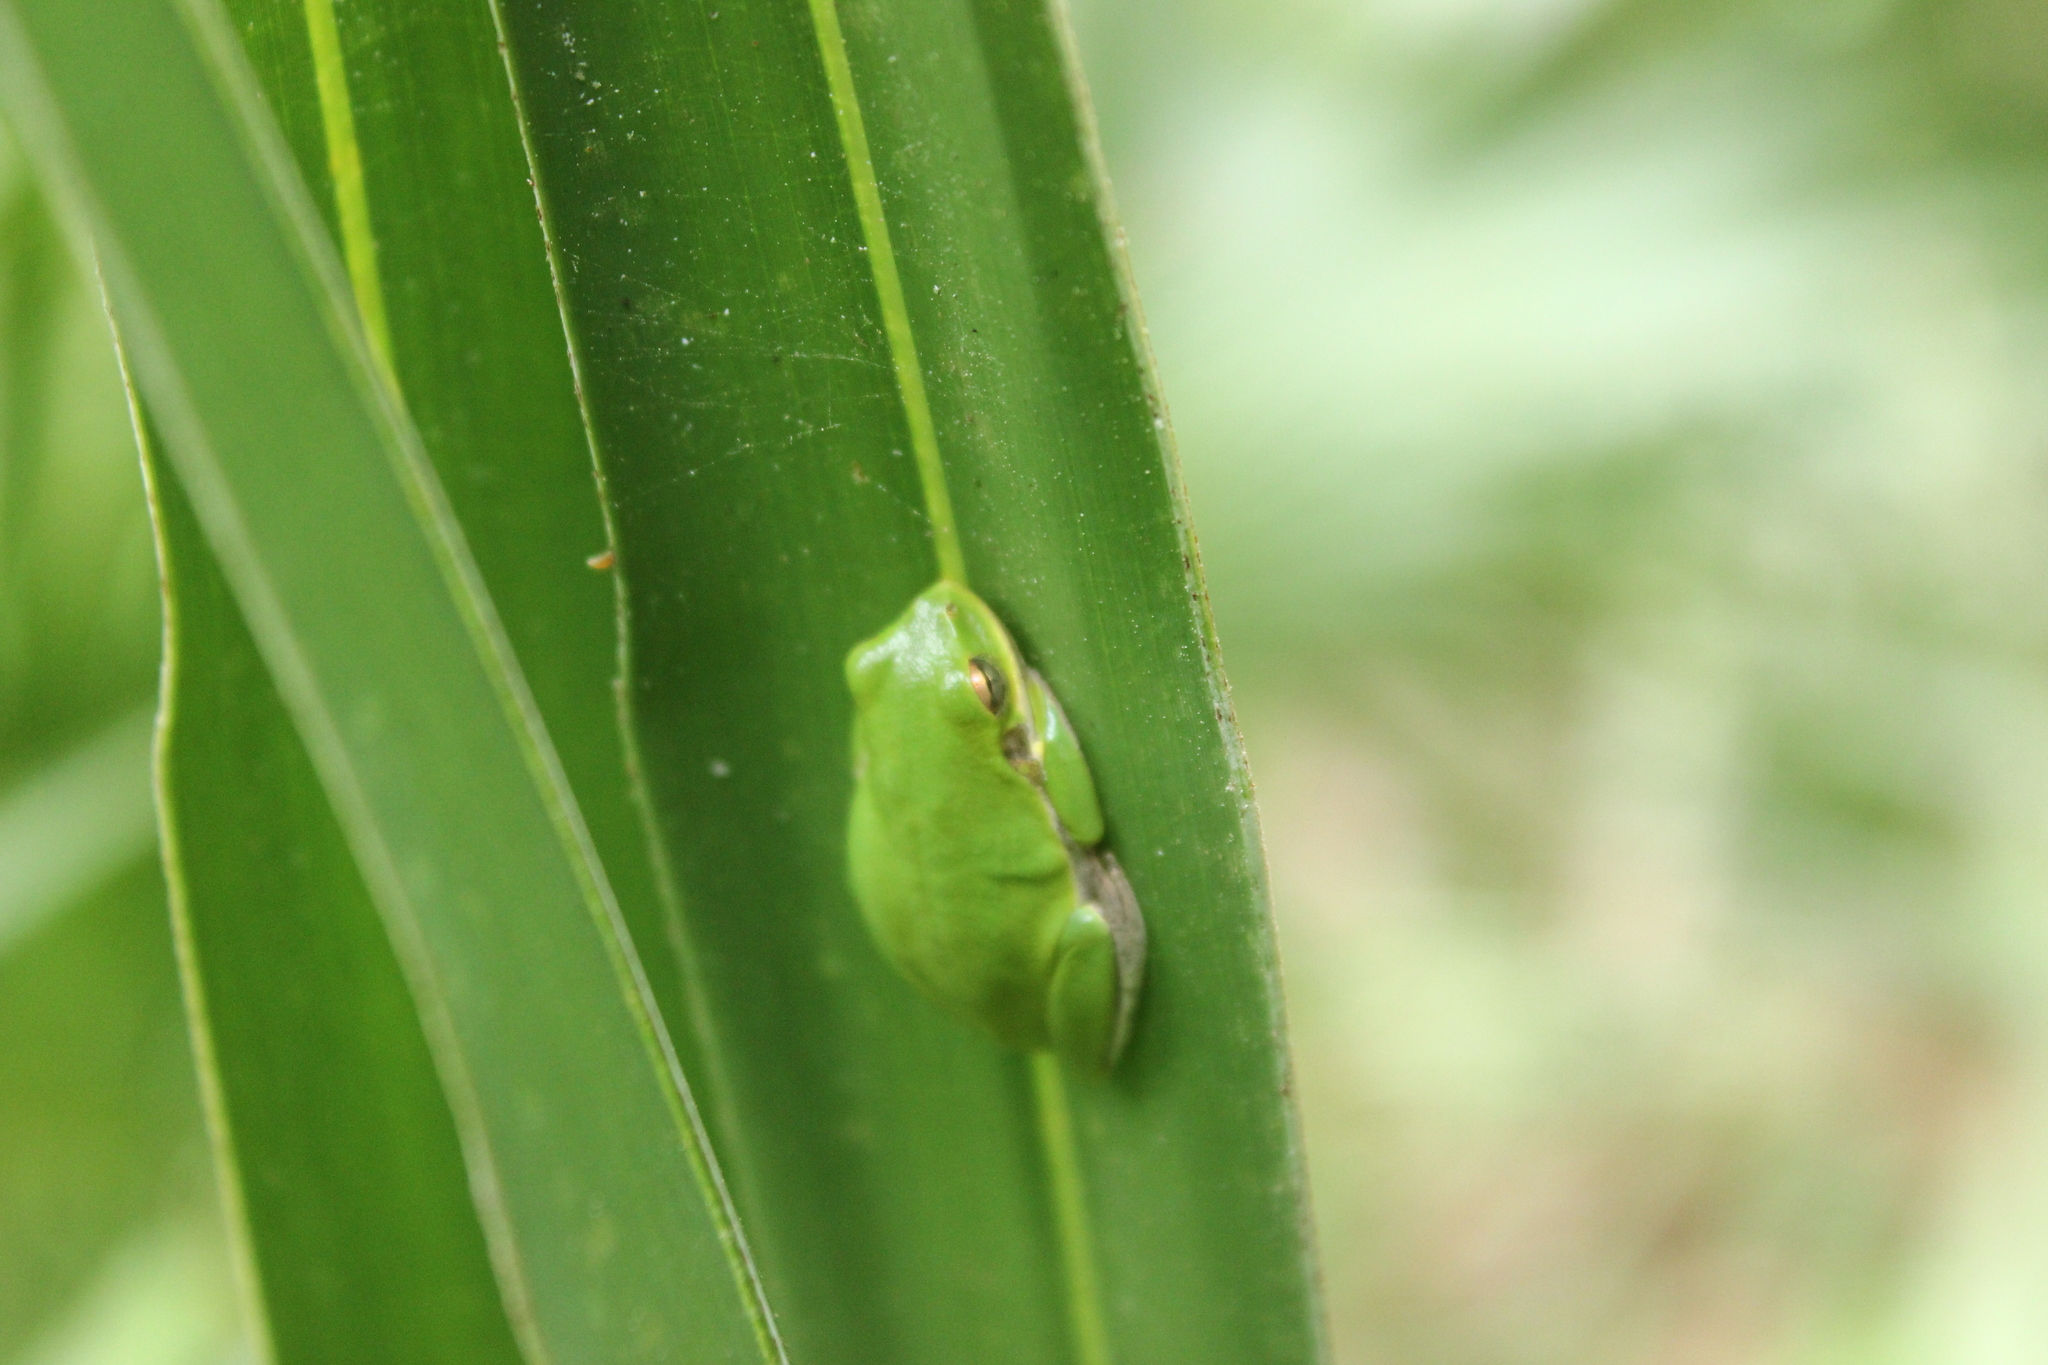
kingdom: Animalia
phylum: Chordata
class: Amphibia
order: Anura
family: Hylidae
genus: Dryophytes
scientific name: Dryophytes squirellus
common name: Squirrel treefrog
